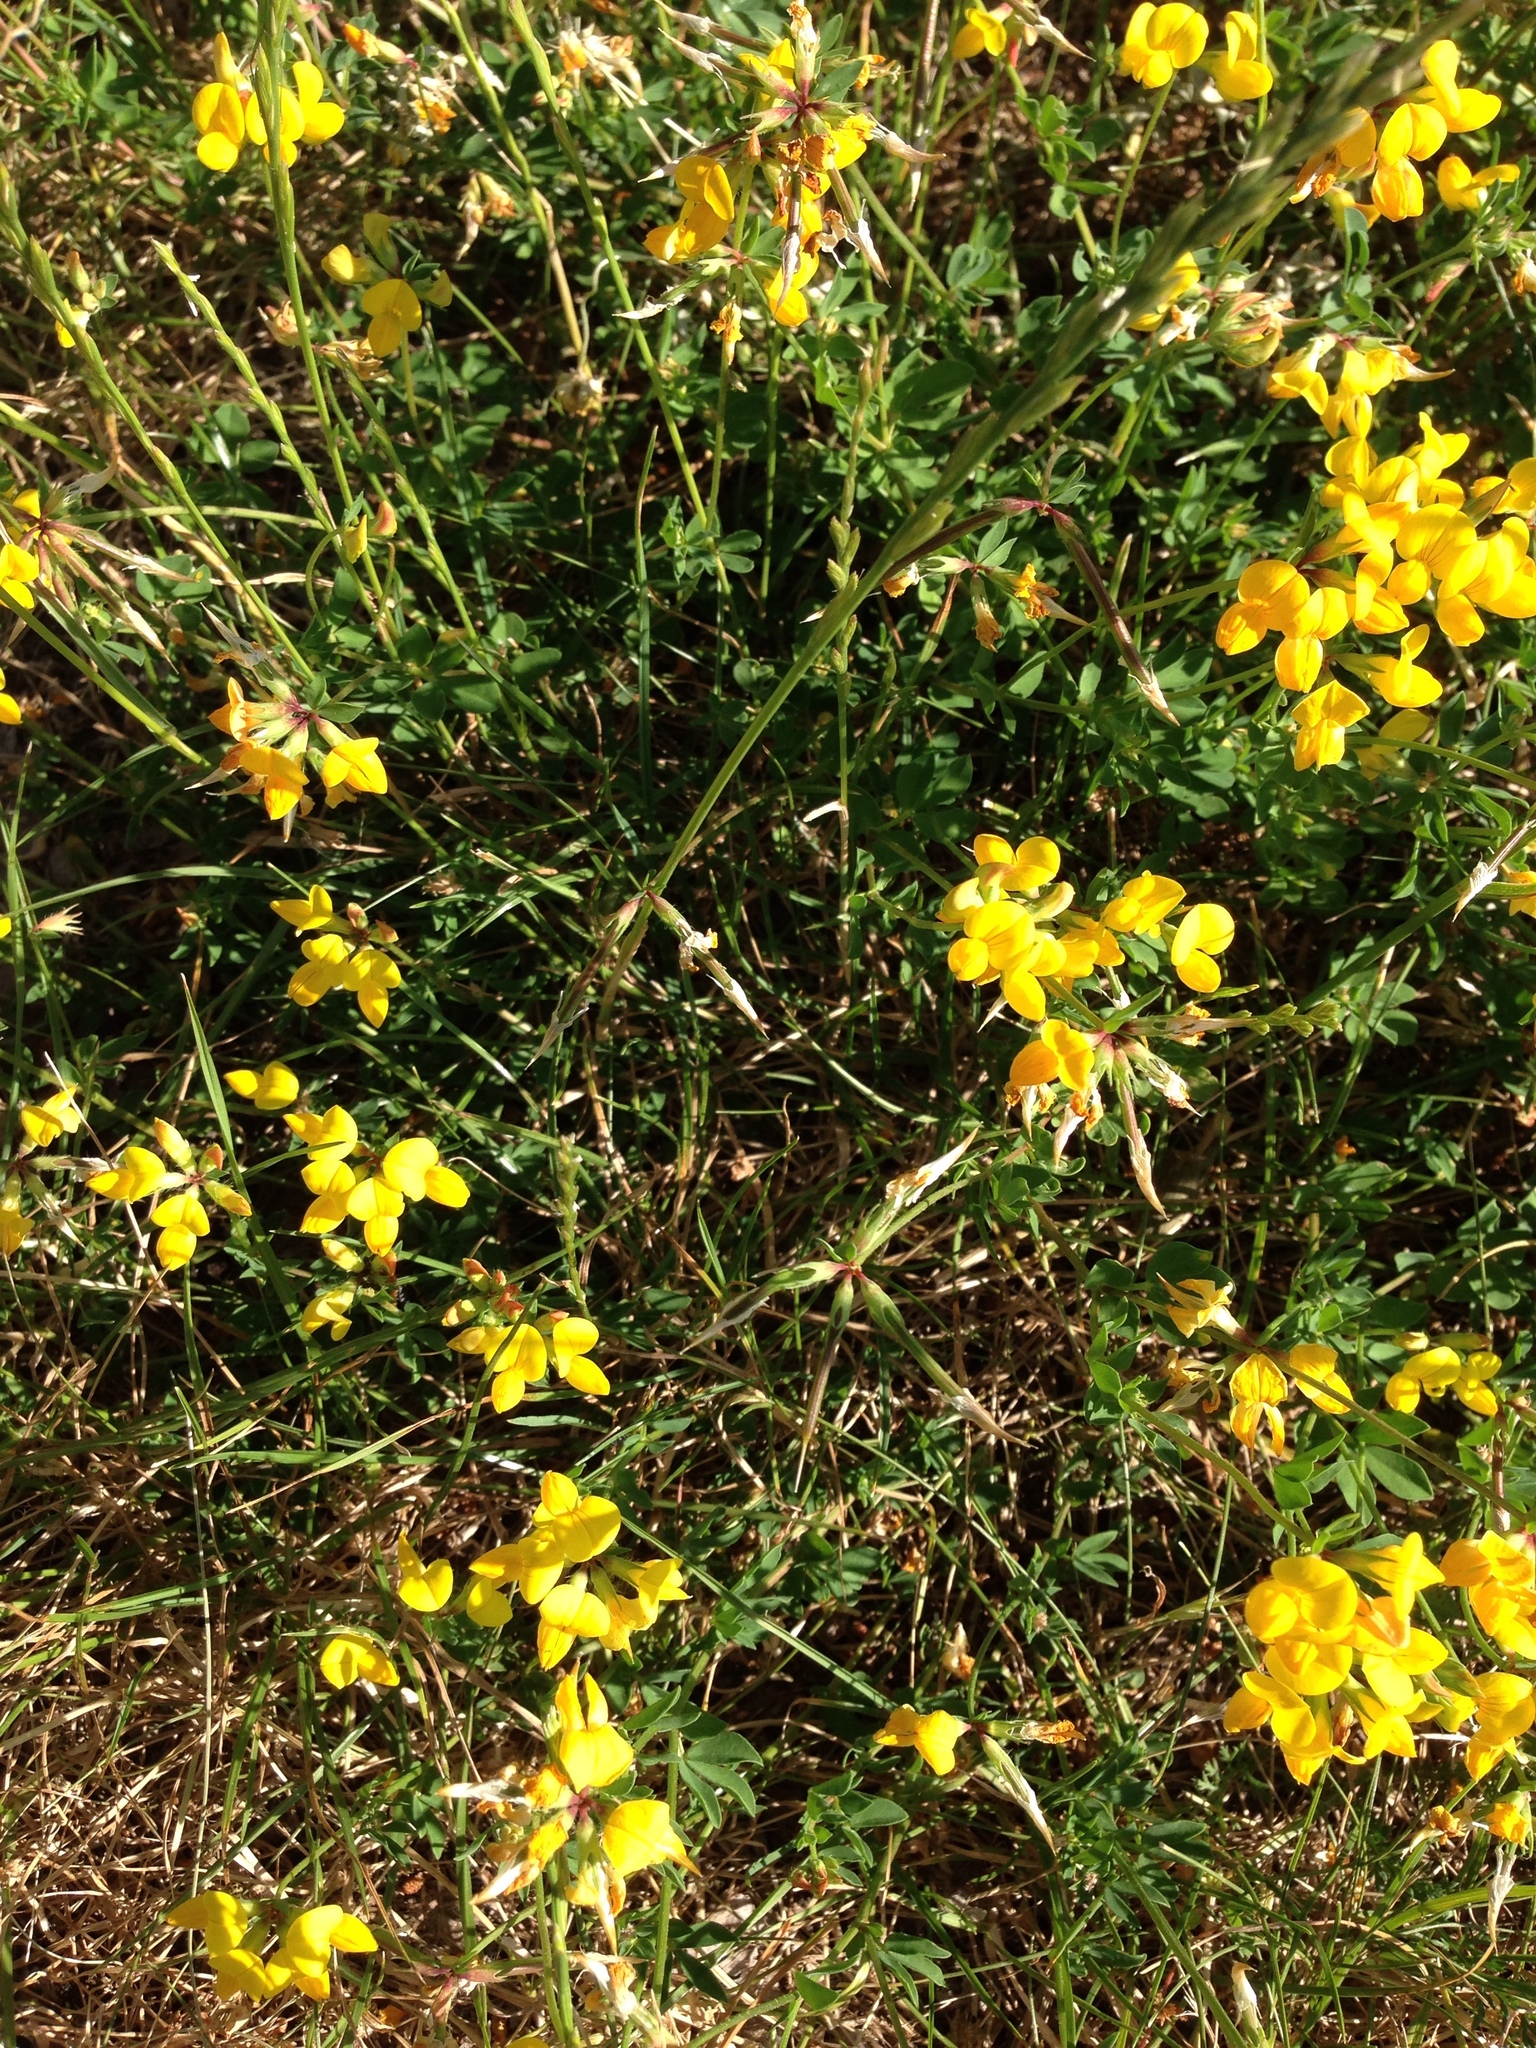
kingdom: Plantae
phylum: Tracheophyta
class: Magnoliopsida
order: Fabales
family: Fabaceae
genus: Lotus
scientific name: Lotus corniculatus
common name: Common bird's-foot-trefoil
